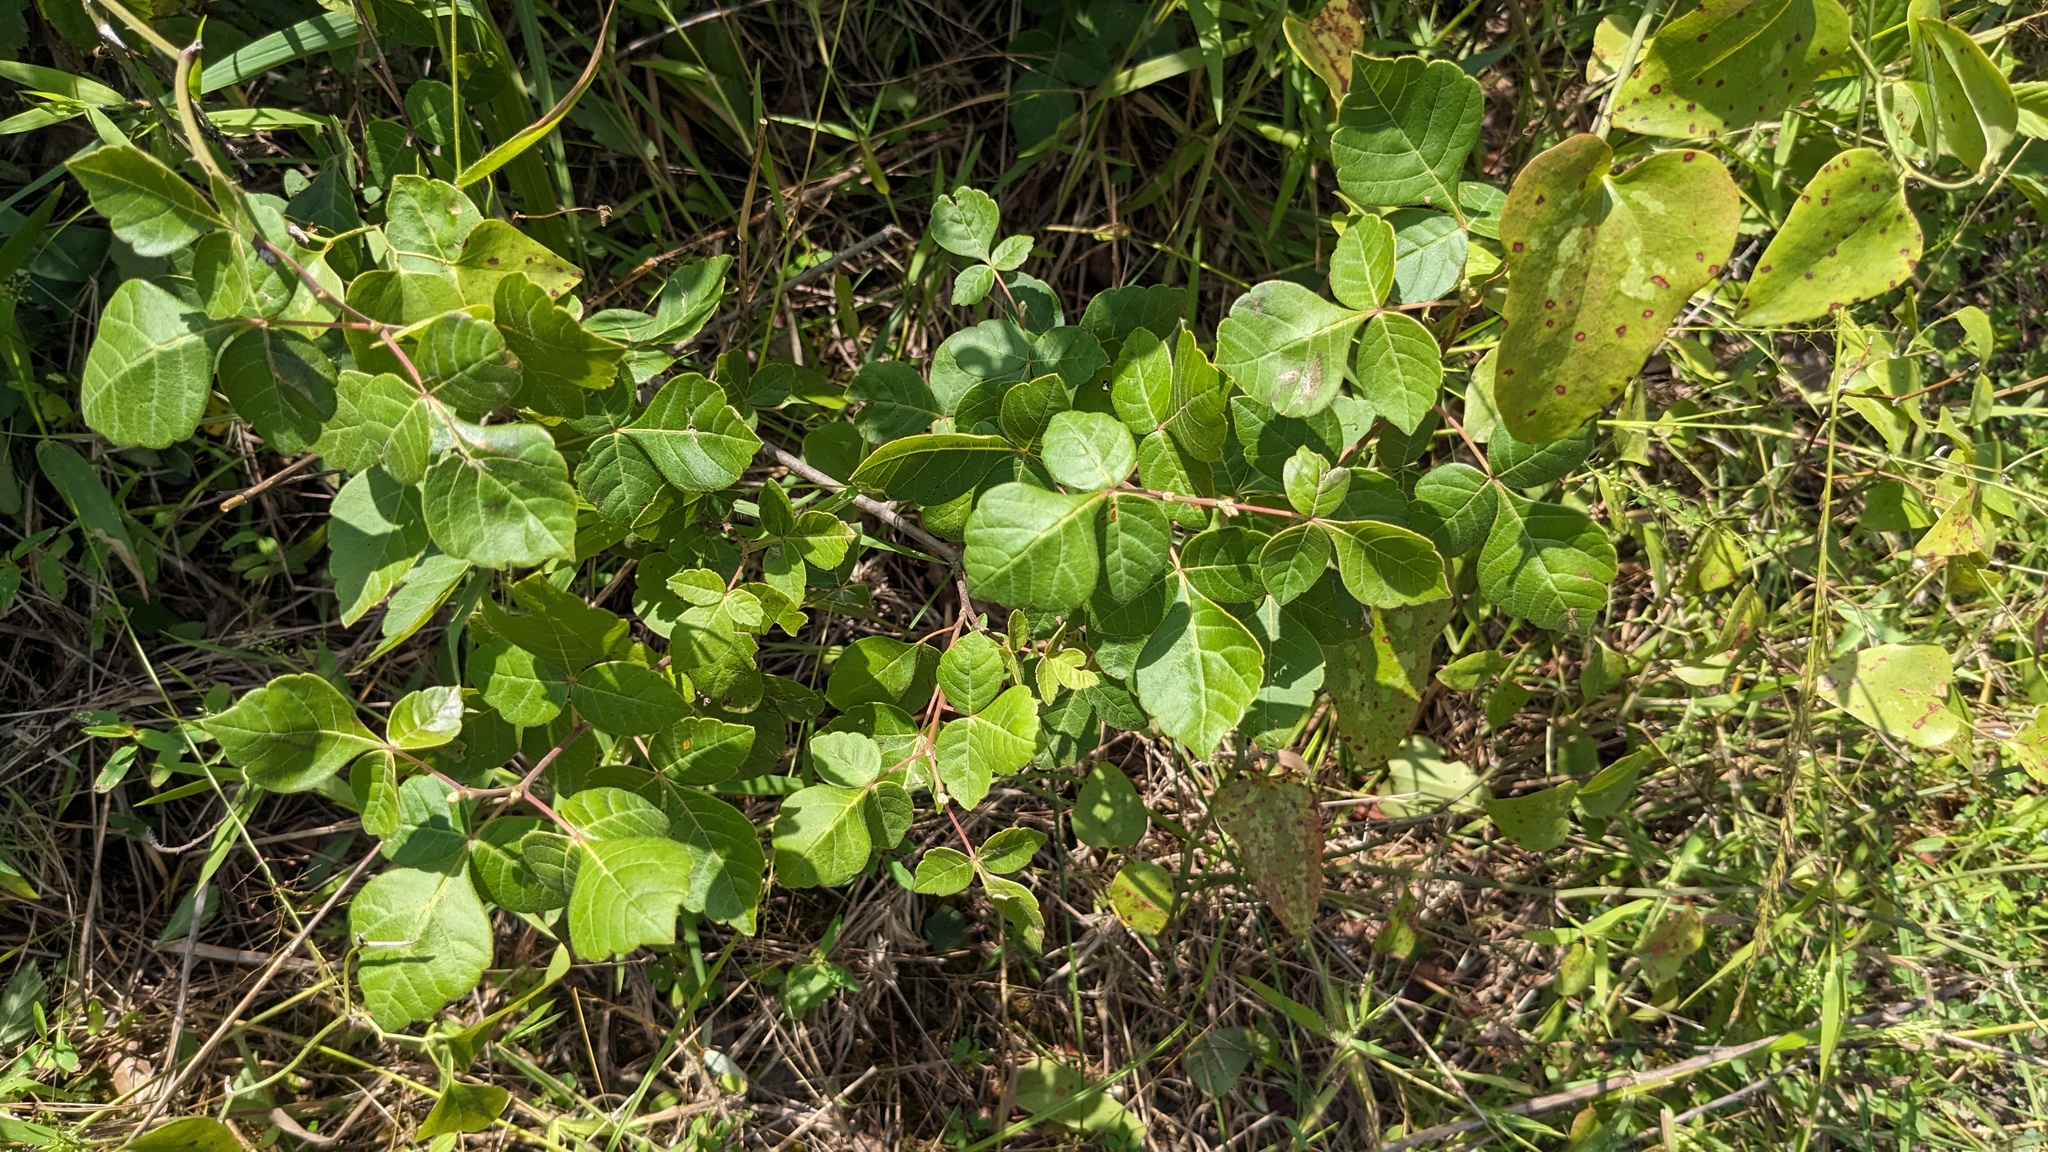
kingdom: Plantae
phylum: Tracheophyta
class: Magnoliopsida
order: Sapindales
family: Anacardiaceae
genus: Rhus
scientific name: Rhus aromatica
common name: Aromatic sumac
